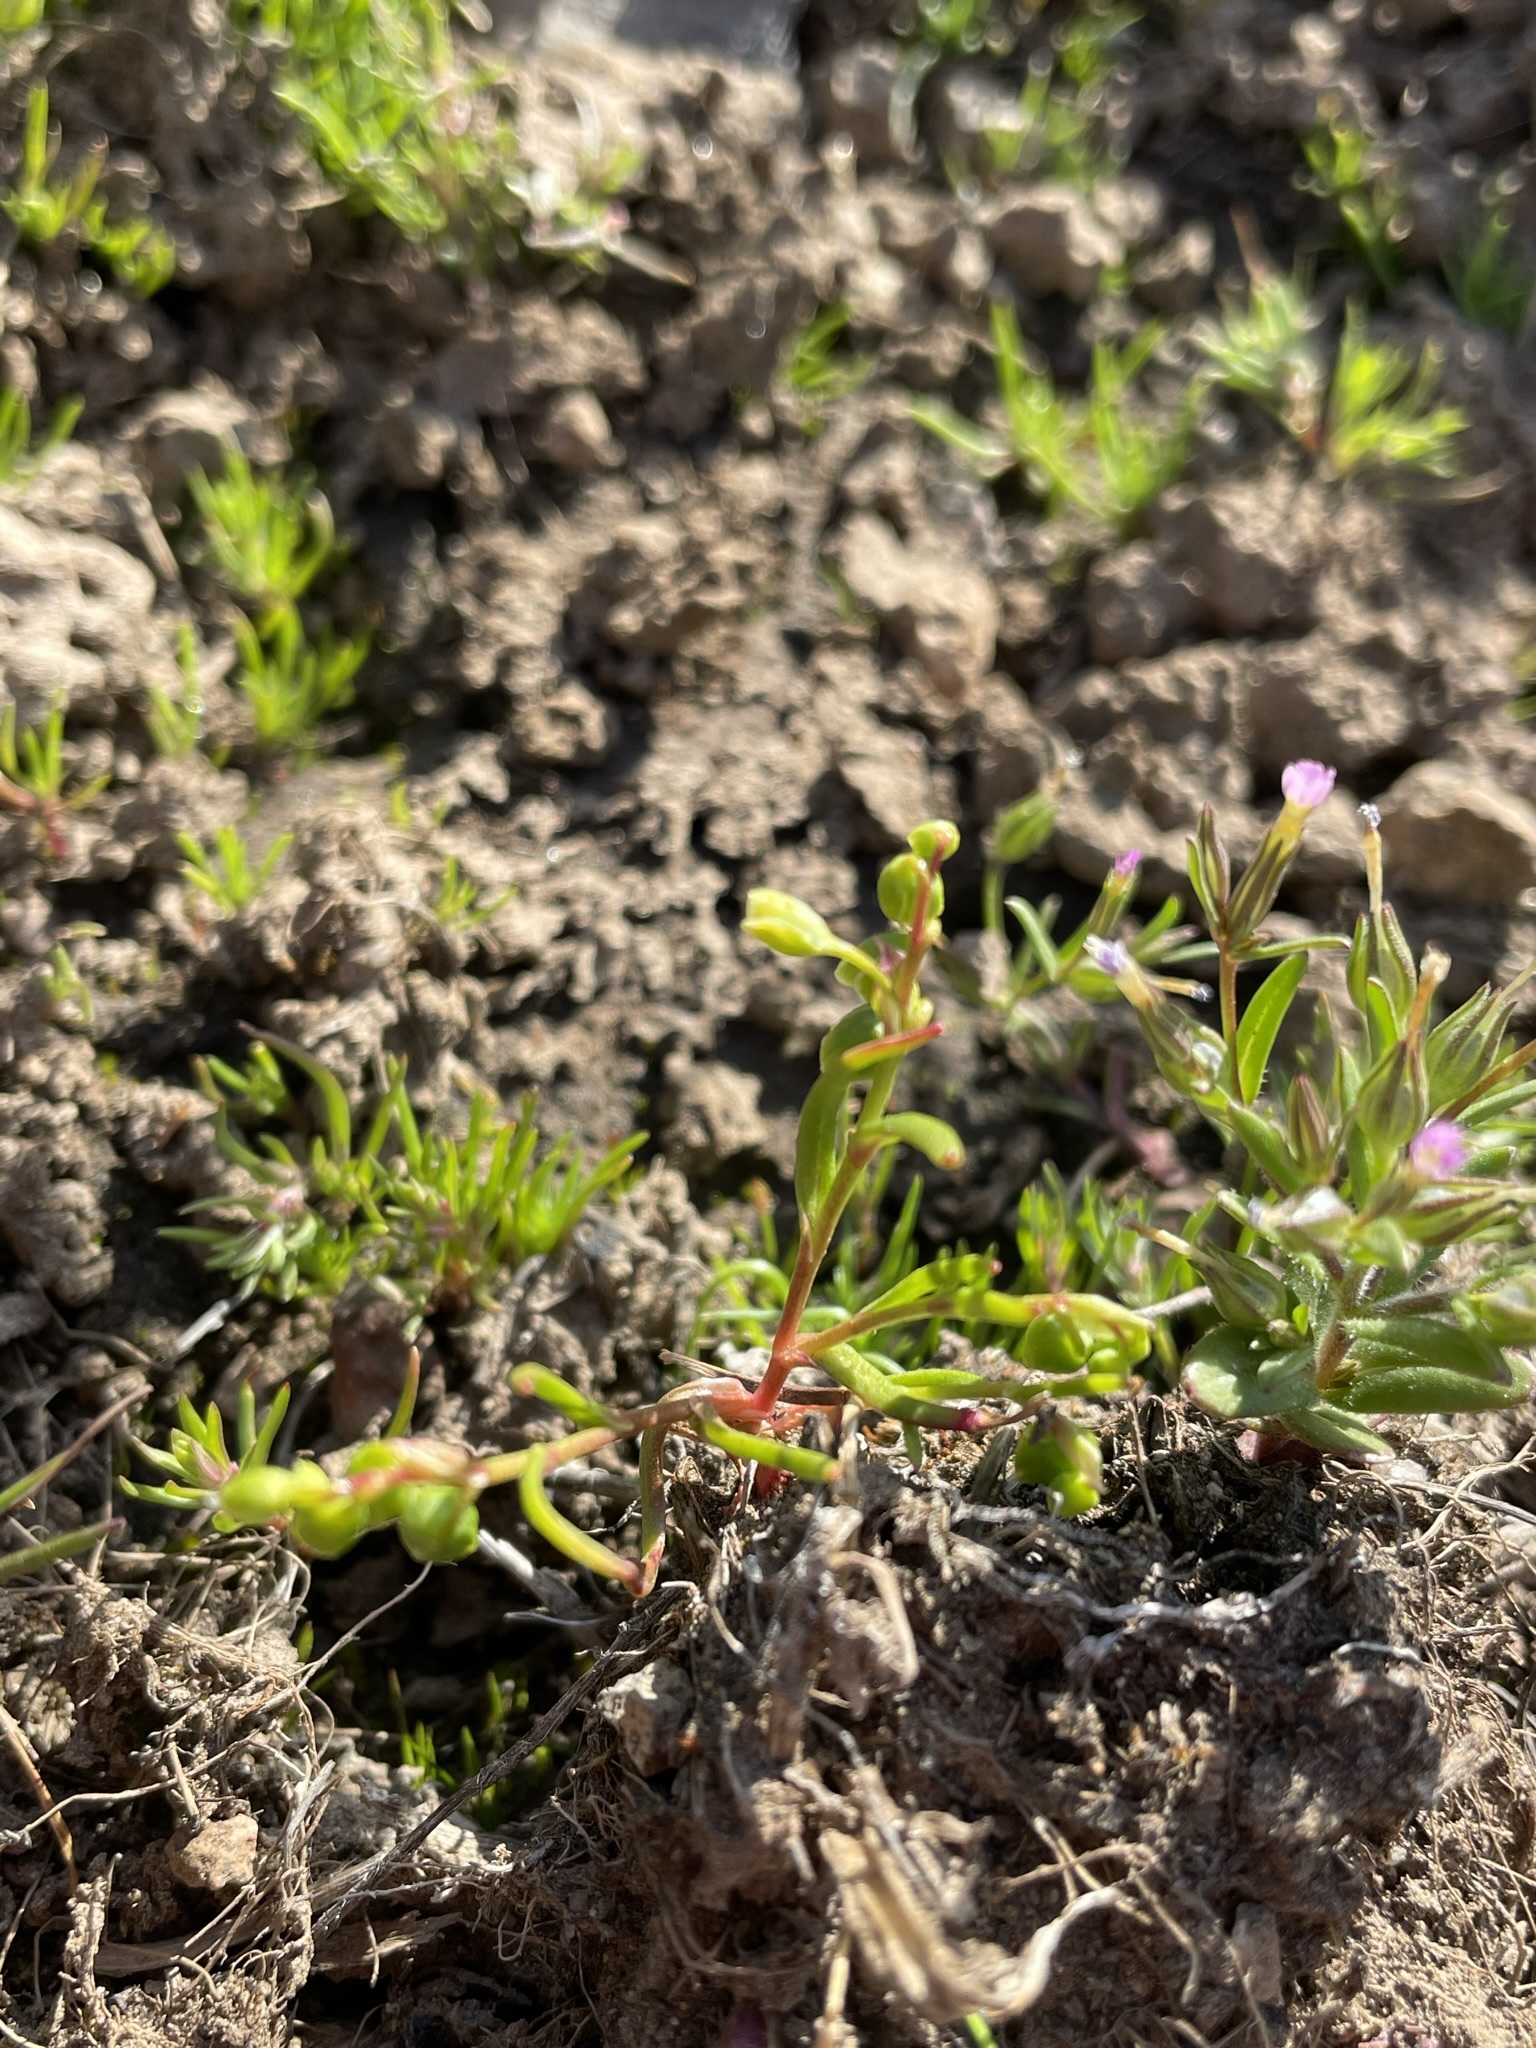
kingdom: Plantae
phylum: Tracheophyta
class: Magnoliopsida
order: Caryophyllales
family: Montiaceae
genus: Montia
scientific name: Montia linearis
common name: Narrow-leaf montia
